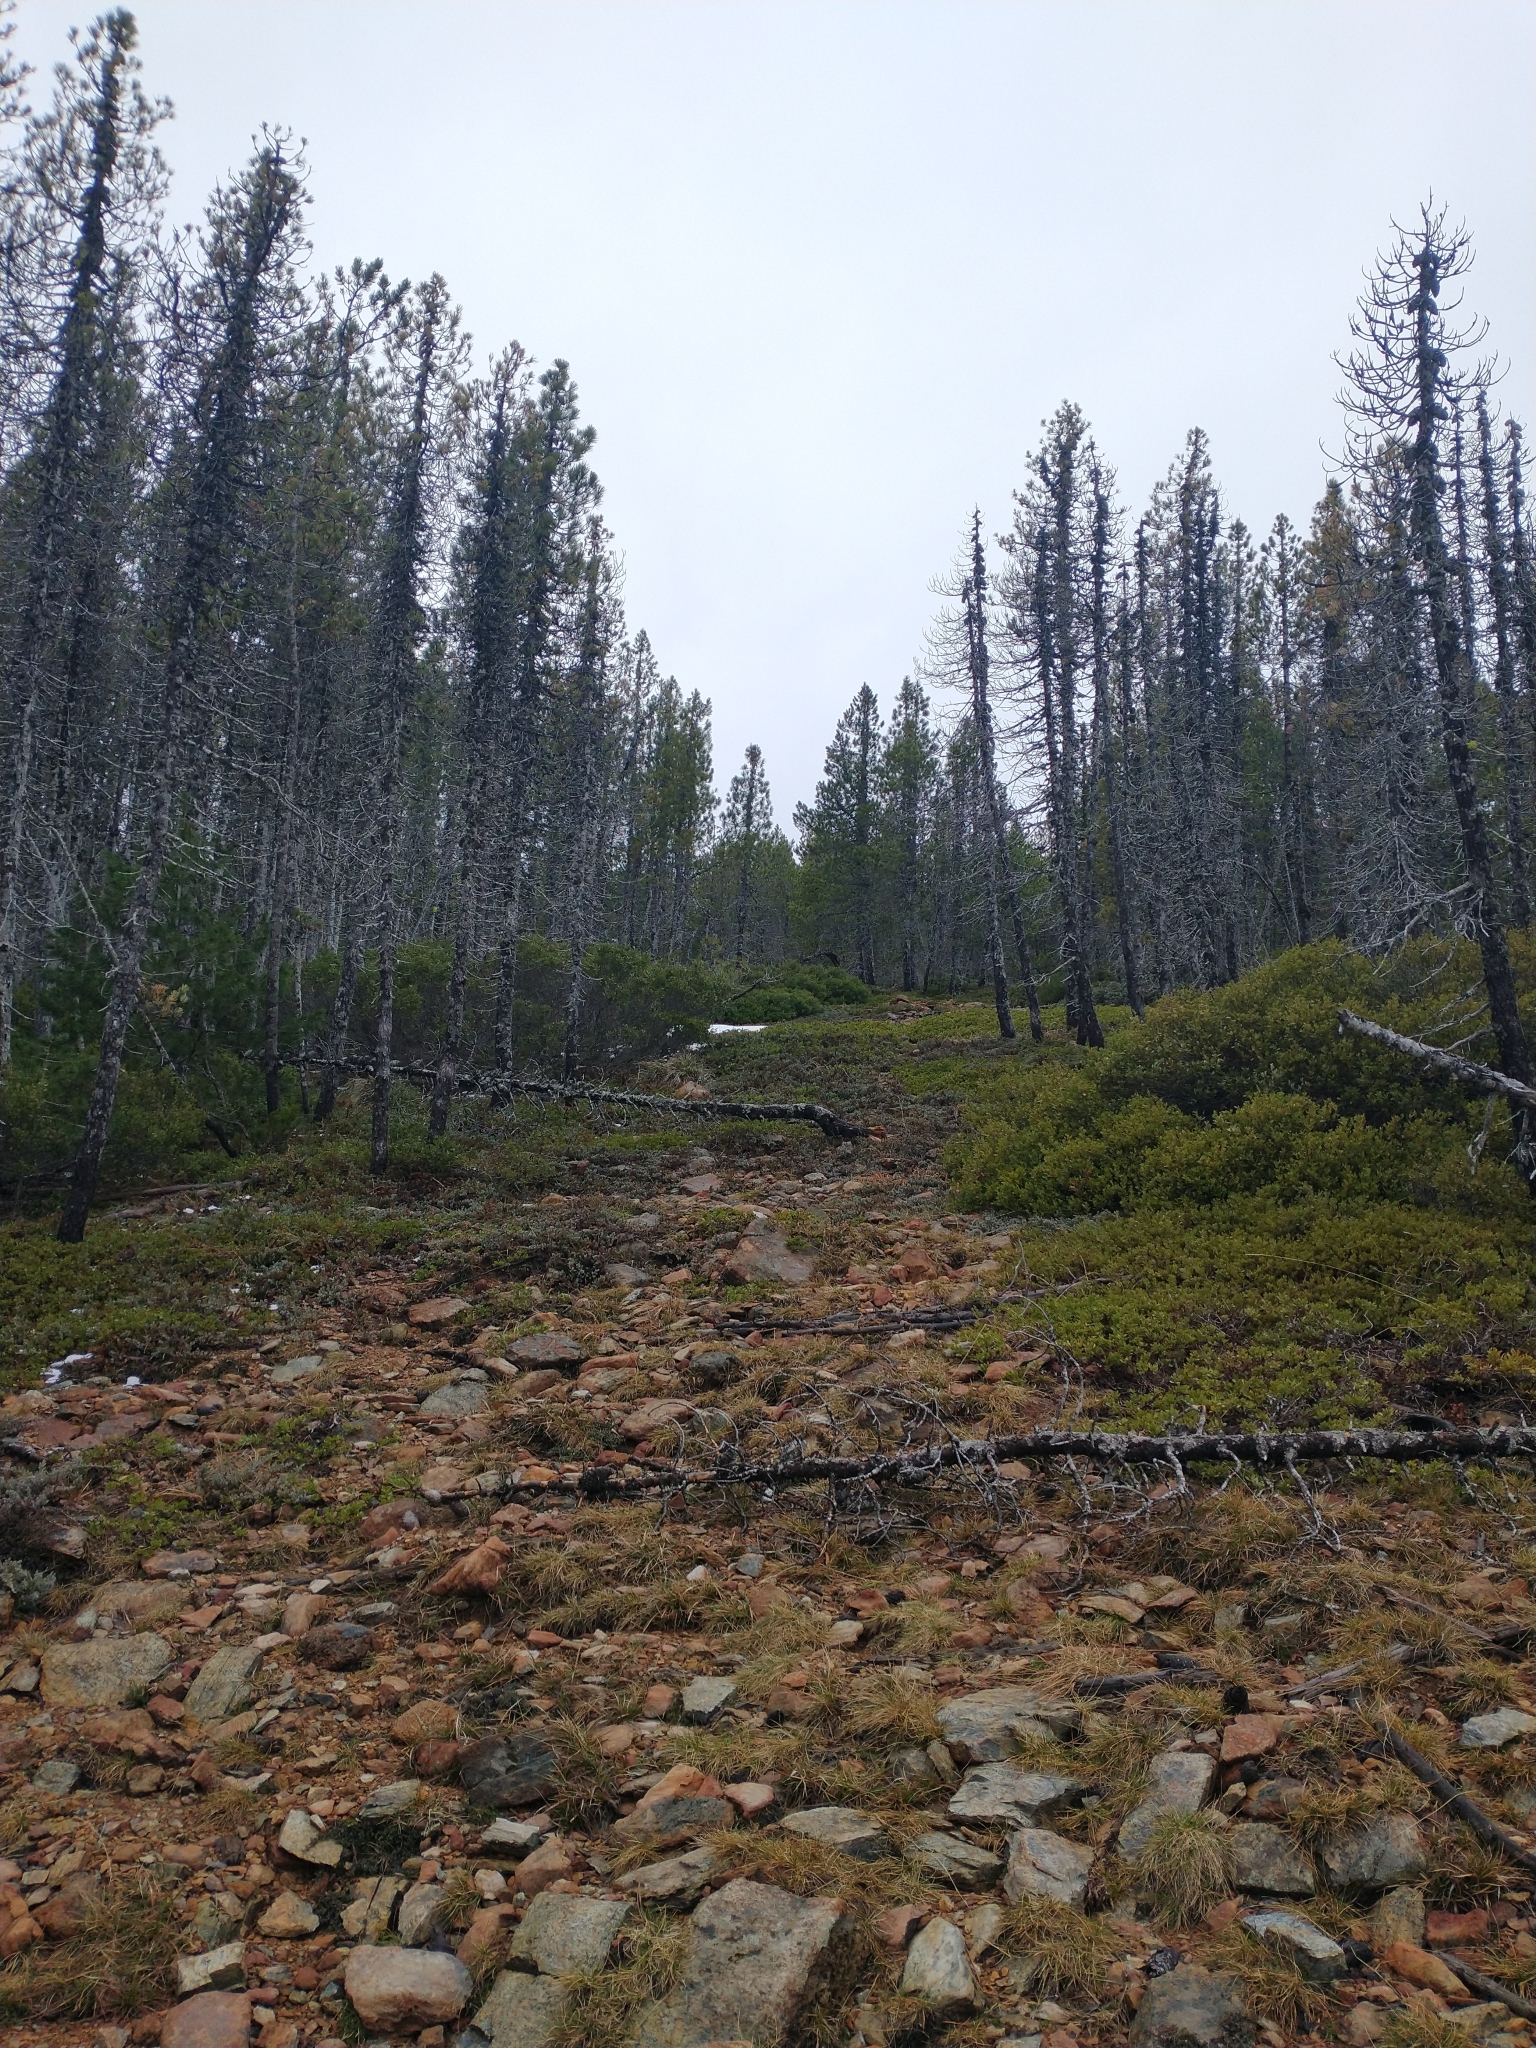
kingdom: Plantae
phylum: Tracheophyta
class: Pinopsida
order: Pinales
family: Pinaceae
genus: Pinus
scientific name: Pinus attenuata
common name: Knobcone pine
